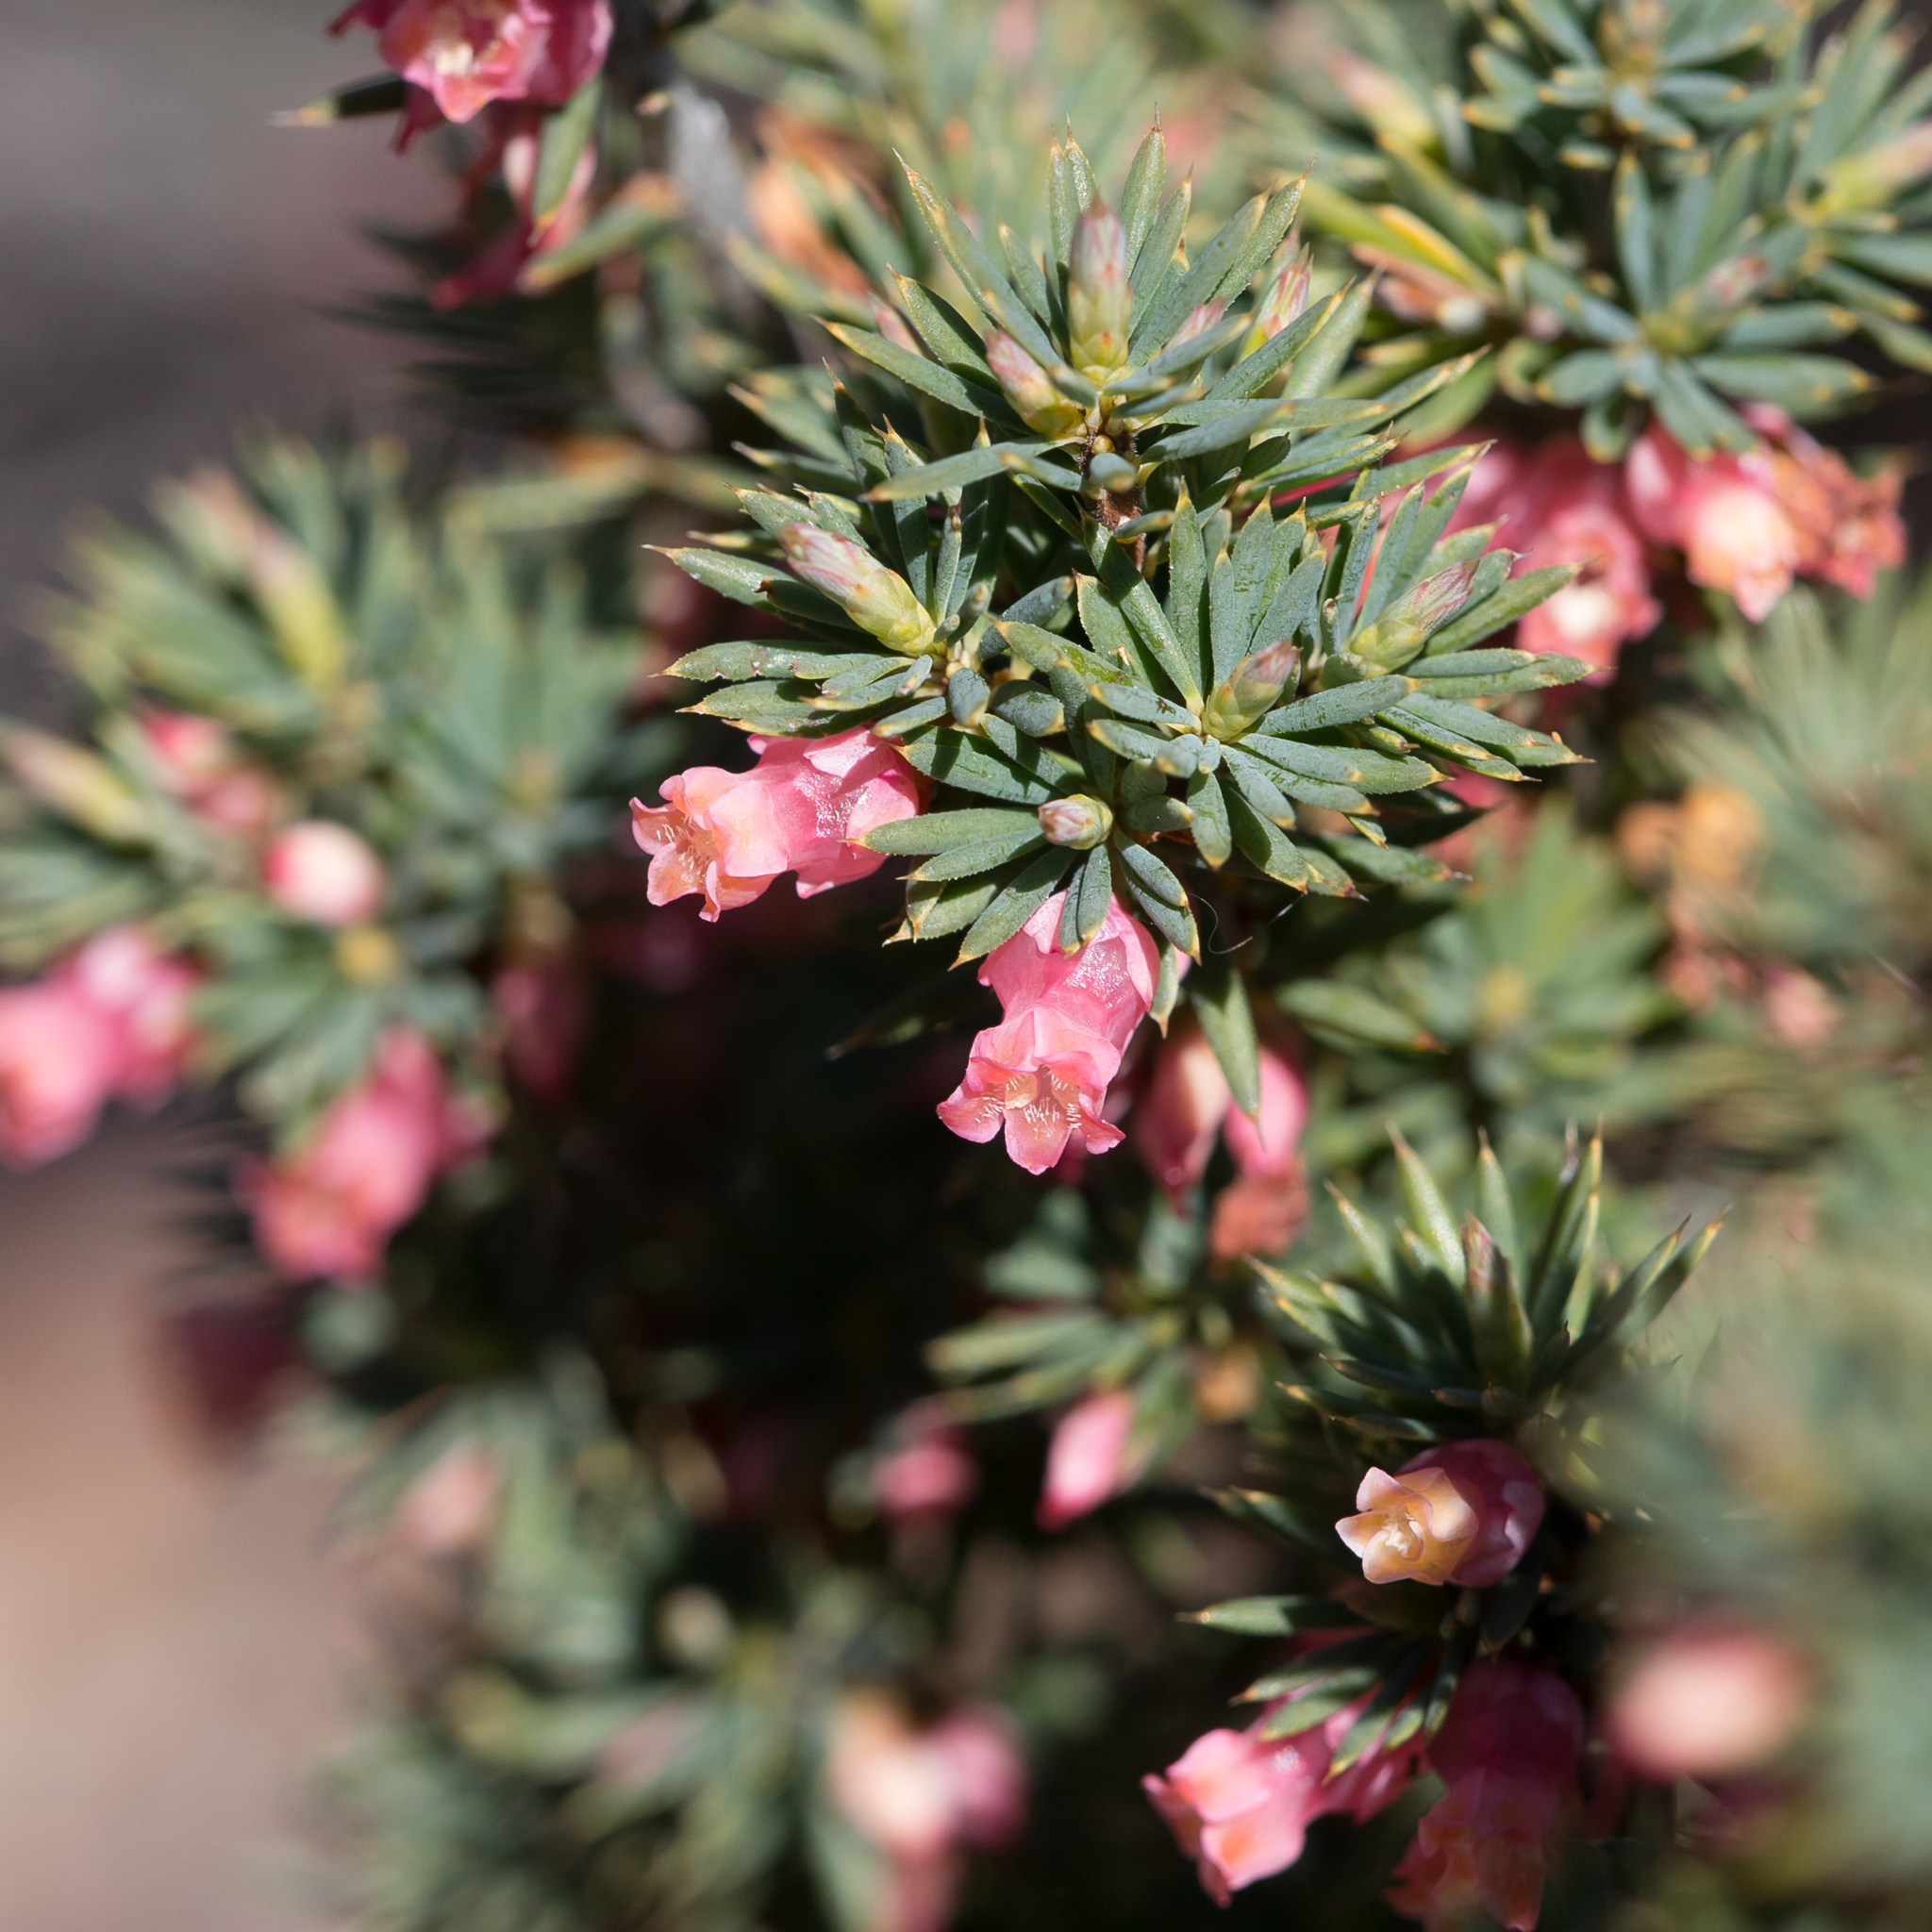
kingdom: Plantae
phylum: Tracheophyta
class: Magnoliopsida
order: Ericales
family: Ericaceae
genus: Brachyloma
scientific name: Brachyloma ericoides
